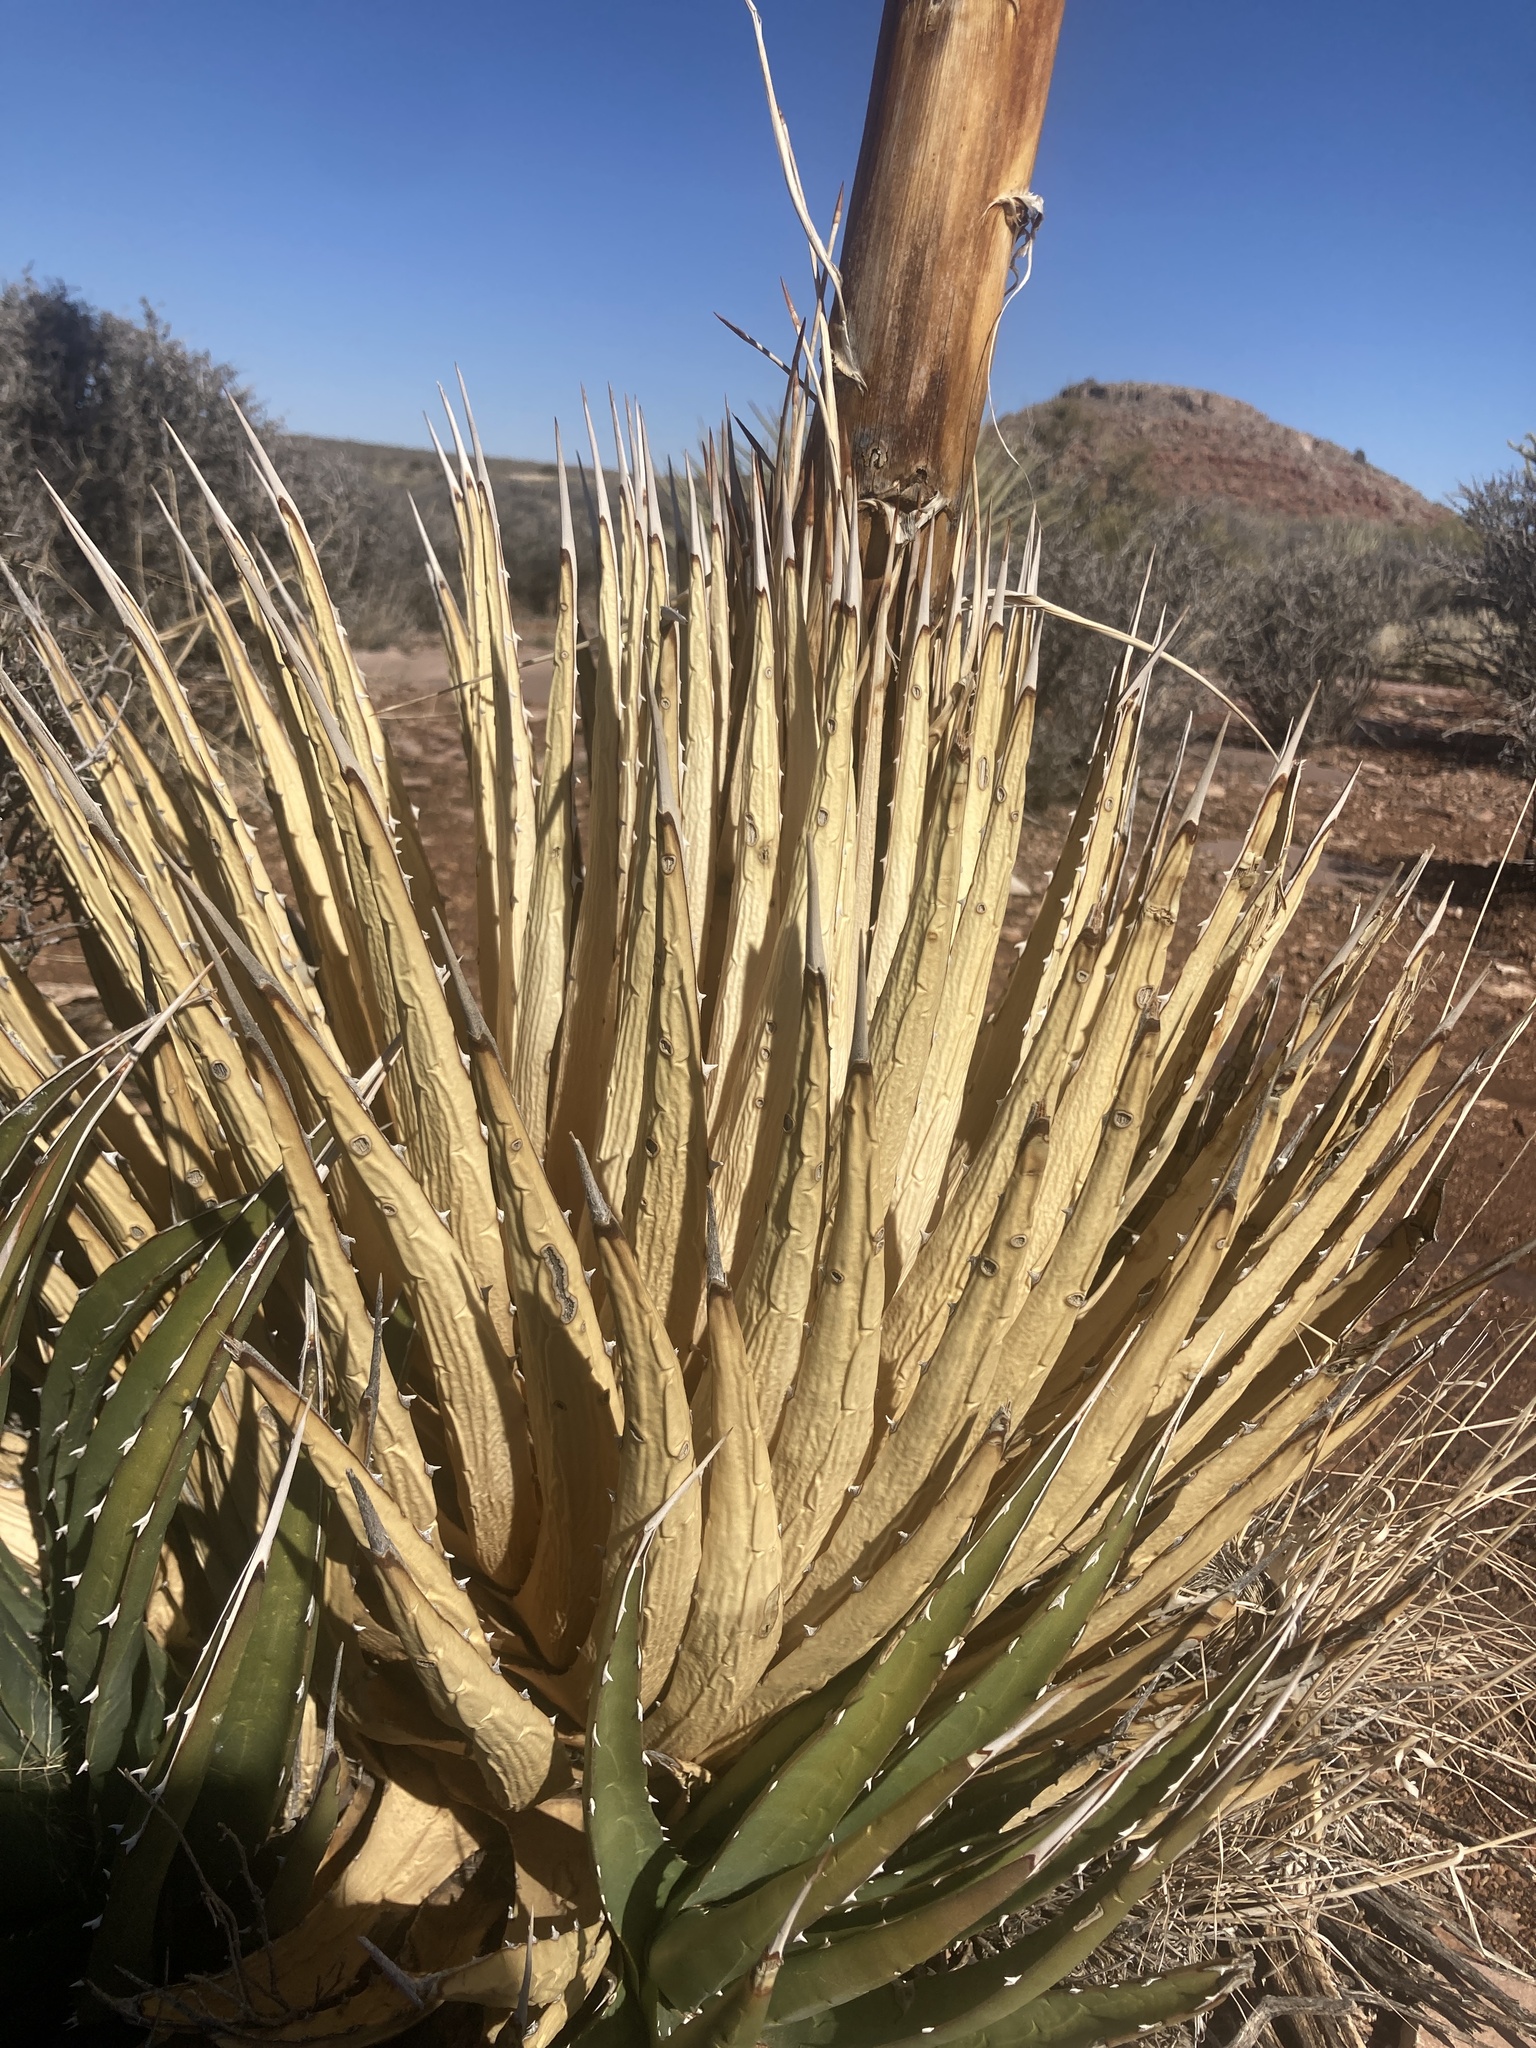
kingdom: Plantae
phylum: Tracheophyta
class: Liliopsida
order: Asparagales
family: Asparagaceae
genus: Agave
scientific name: Agave utahensis
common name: Utah agave
